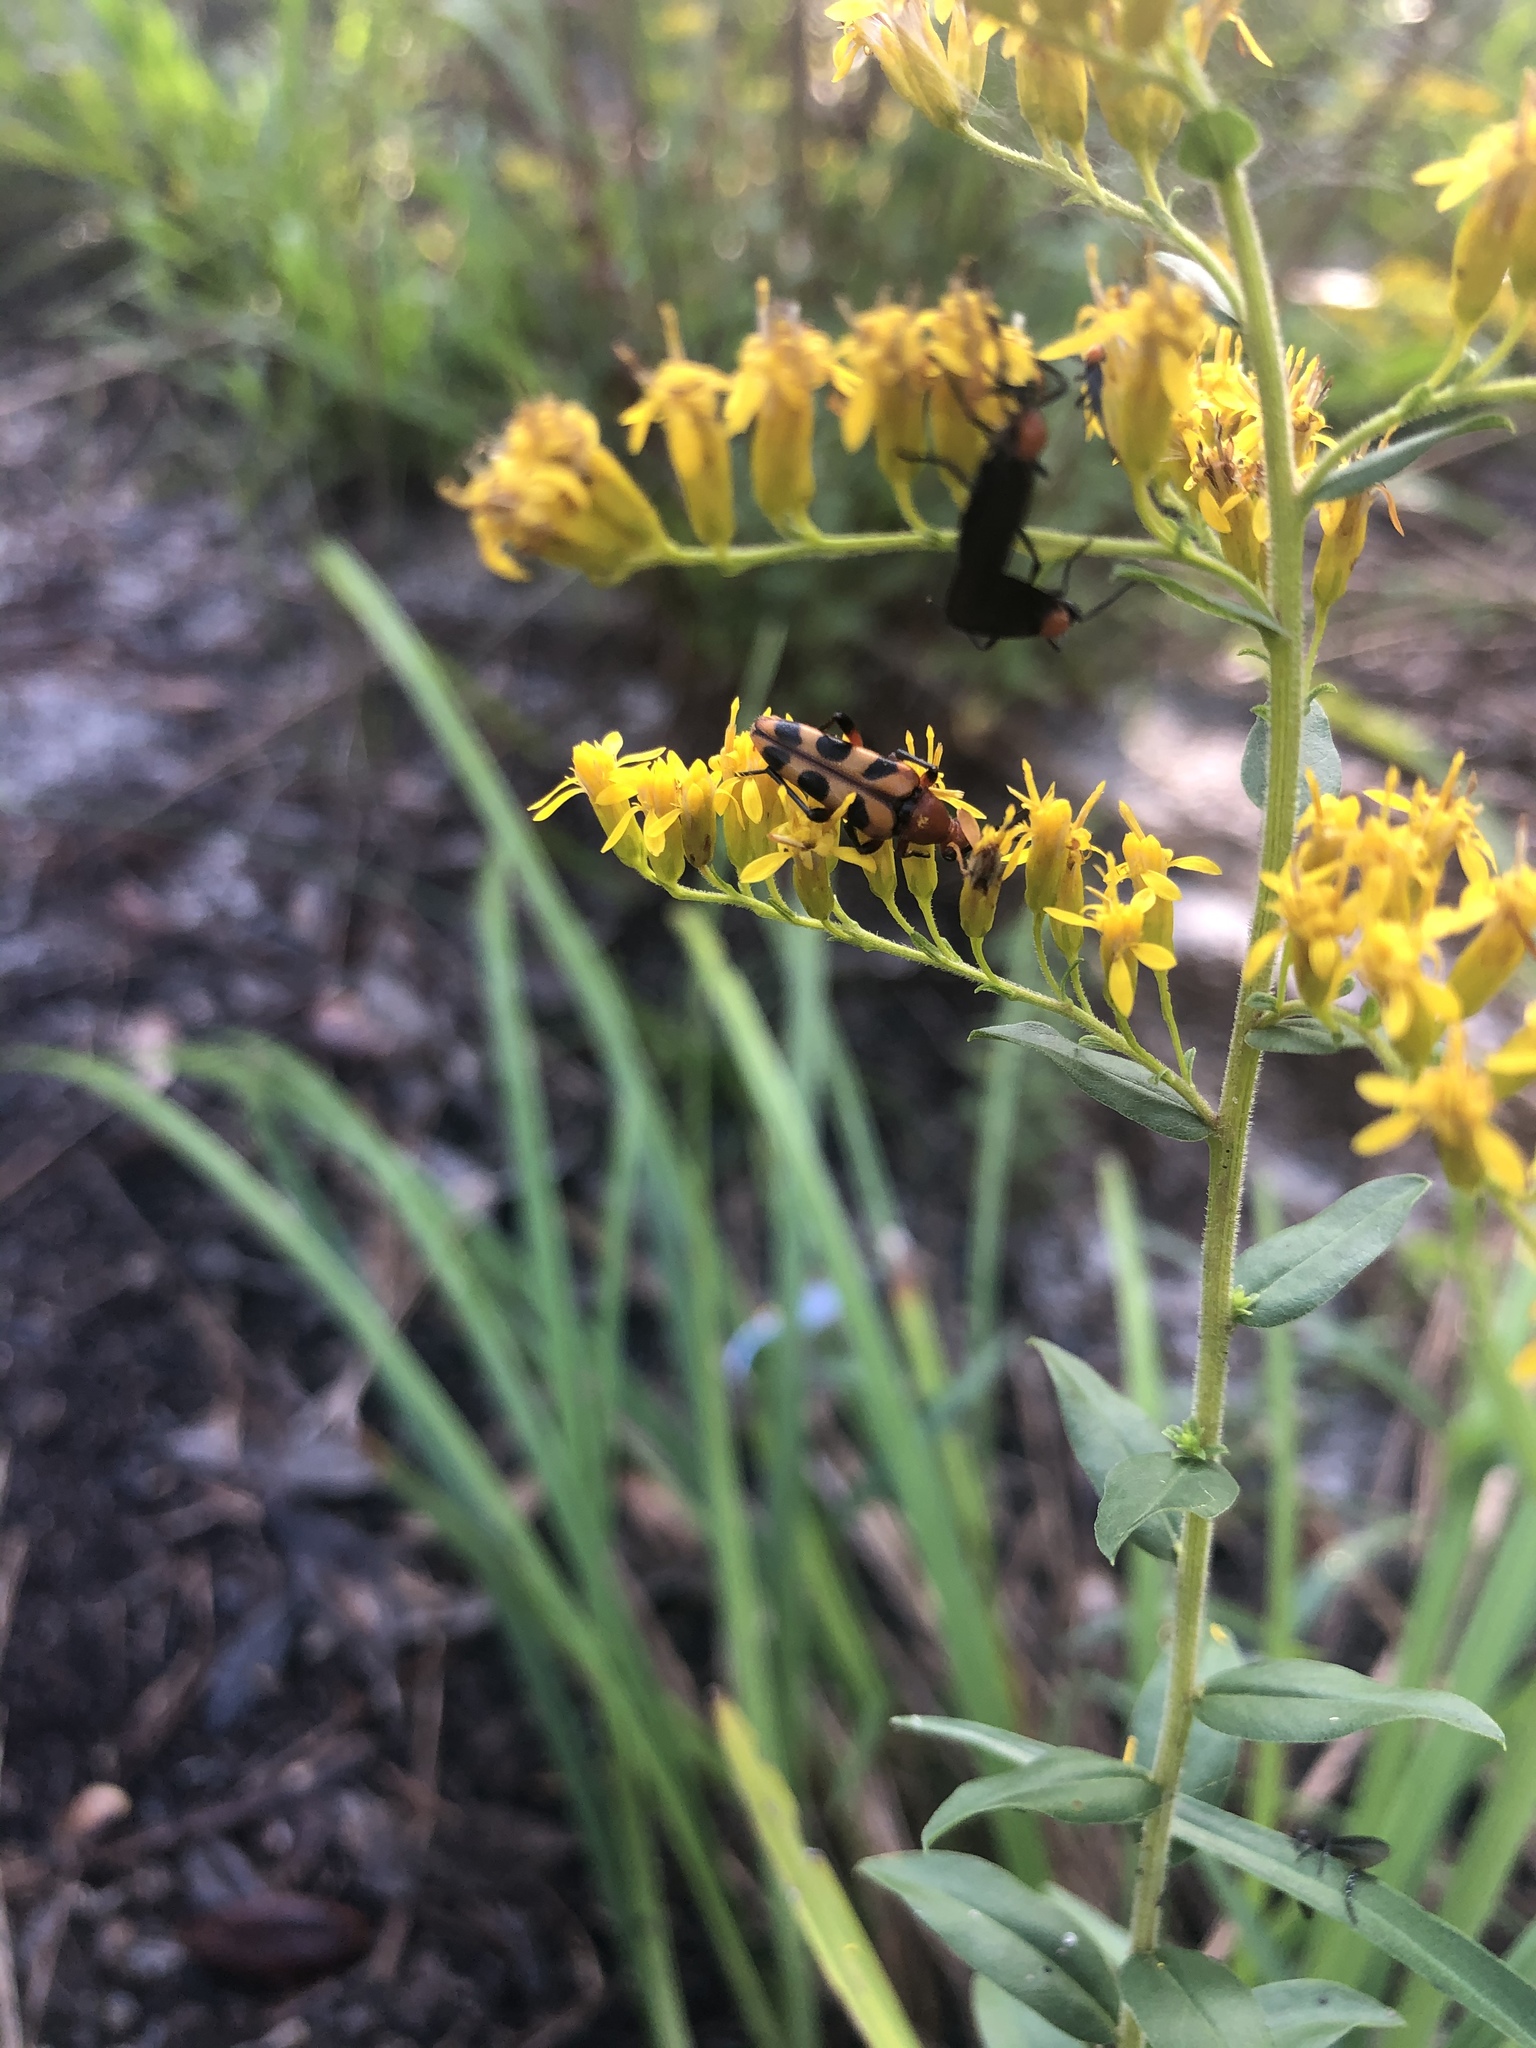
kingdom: Animalia
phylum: Arthropoda
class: Insecta
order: Coleoptera
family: Cerambycidae
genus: Strangalia
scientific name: Strangalia sexnotata
